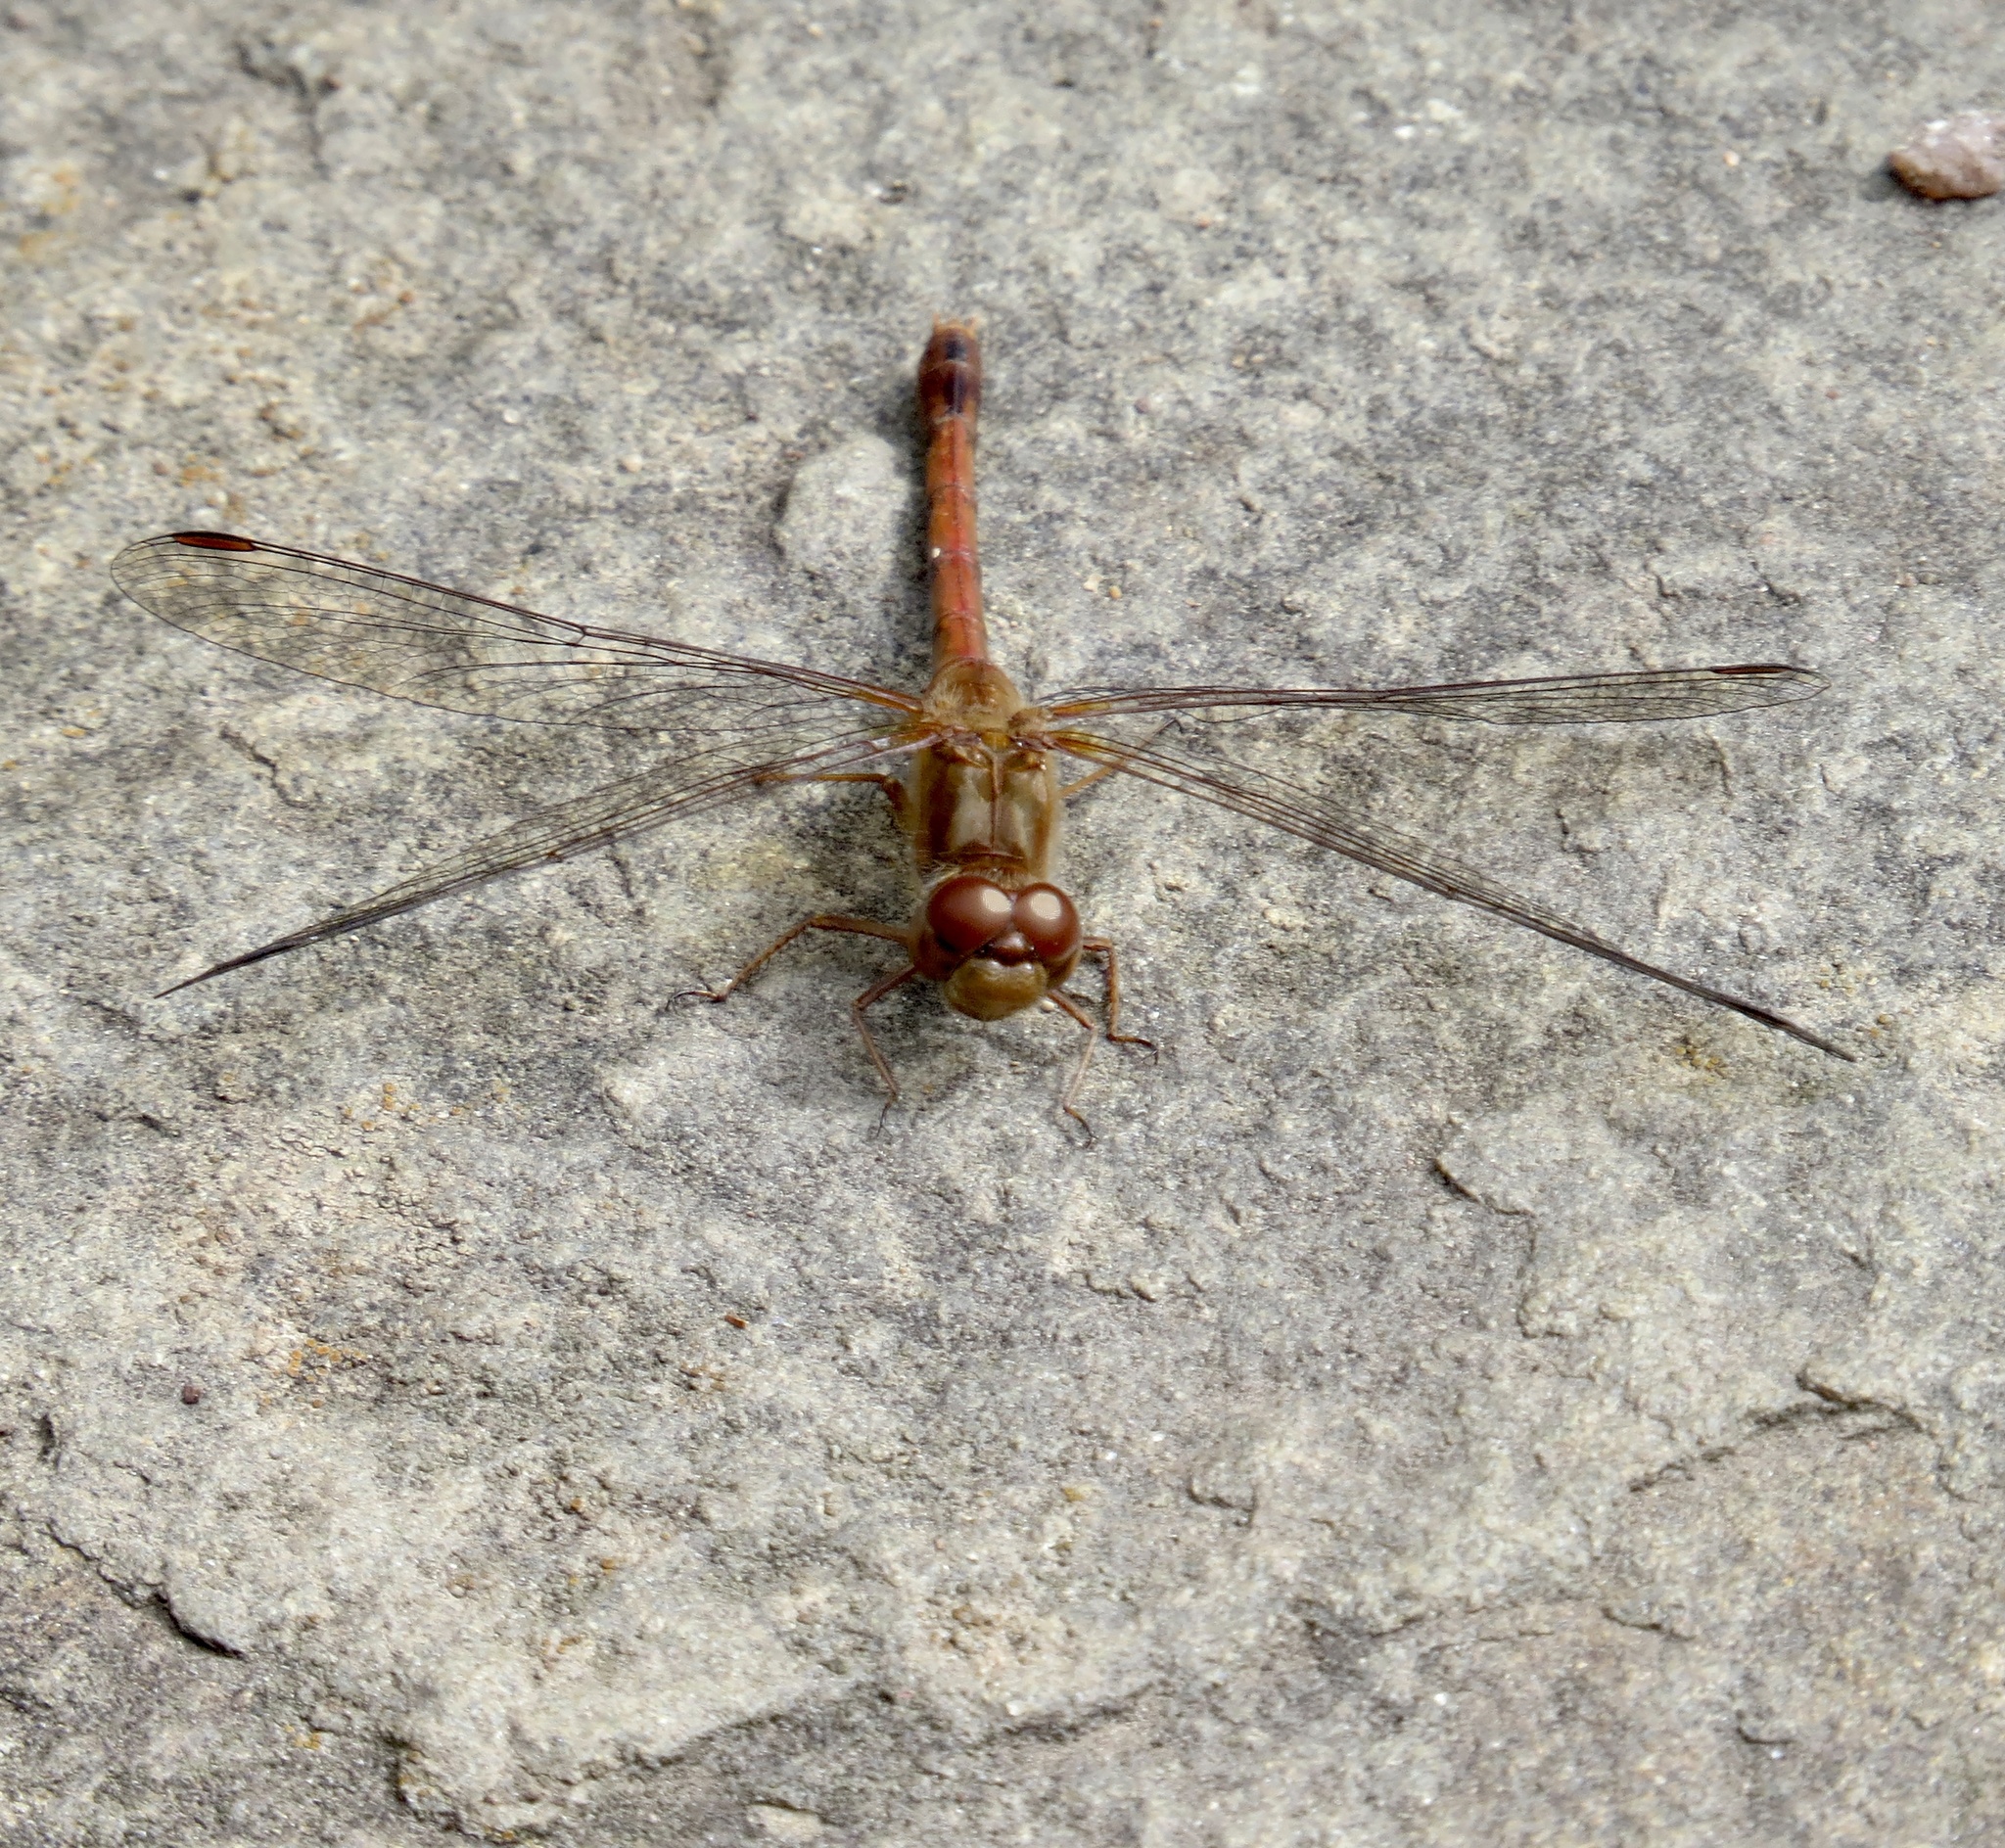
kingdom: Animalia
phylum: Arthropoda
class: Insecta
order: Odonata
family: Libellulidae
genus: Sympetrum
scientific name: Sympetrum vicinum
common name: Autumn meadowhawk
